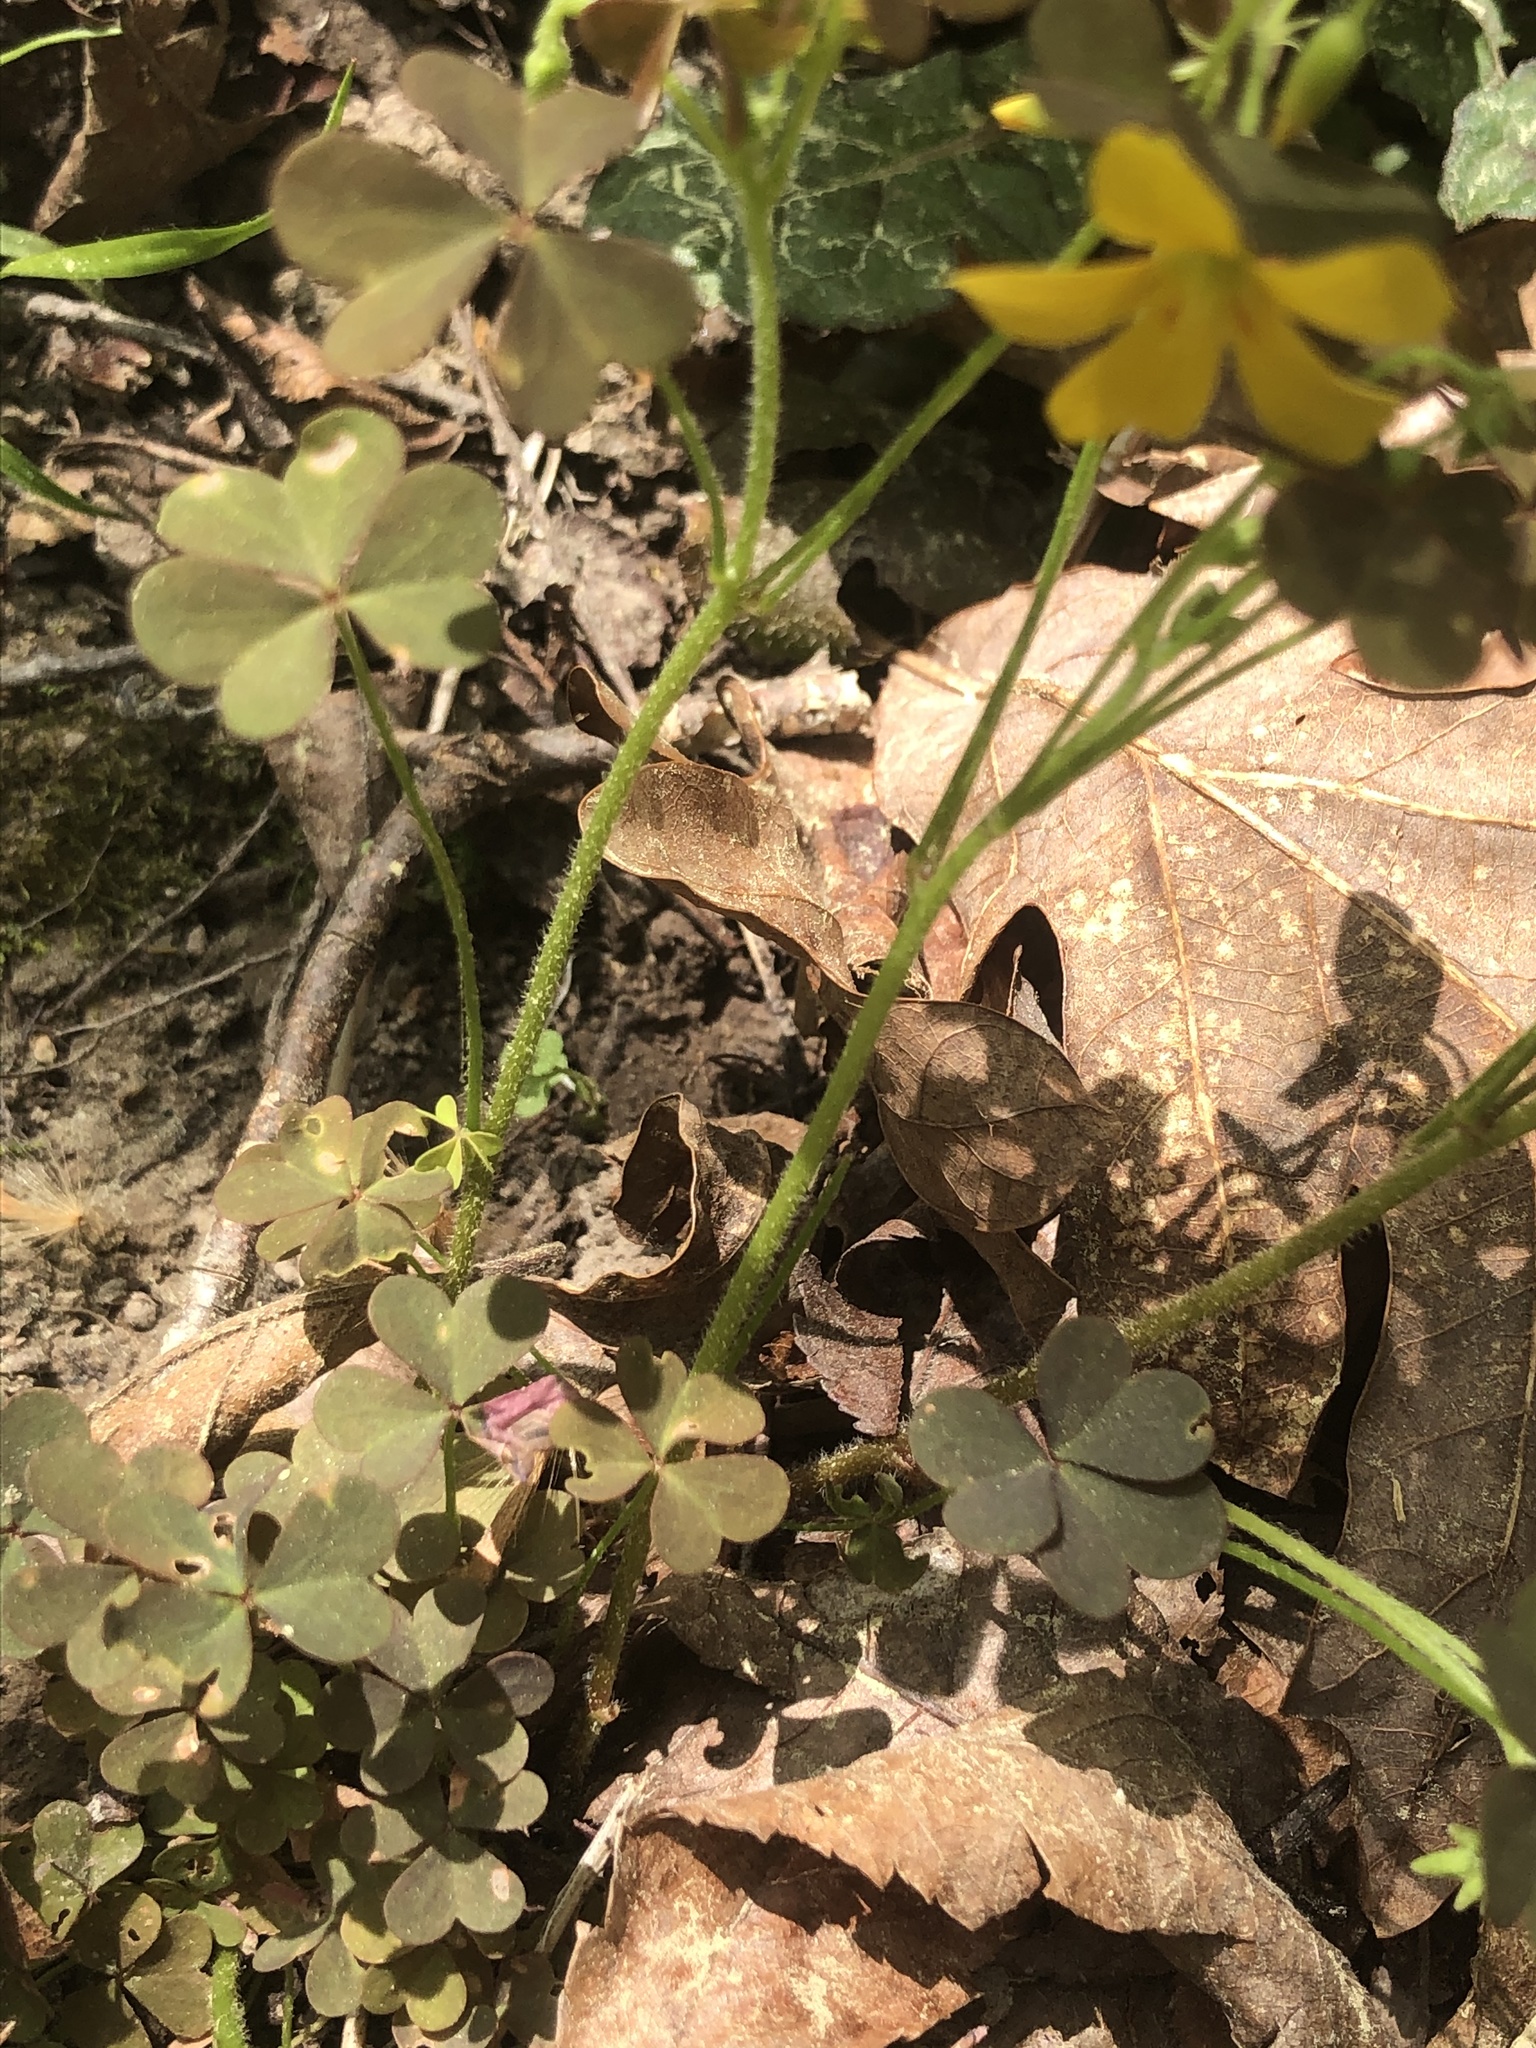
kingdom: Plantae
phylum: Tracheophyta
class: Magnoliopsida
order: Oxalidales
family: Oxalidaceae
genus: Oxalis
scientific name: Oxalis colorea
